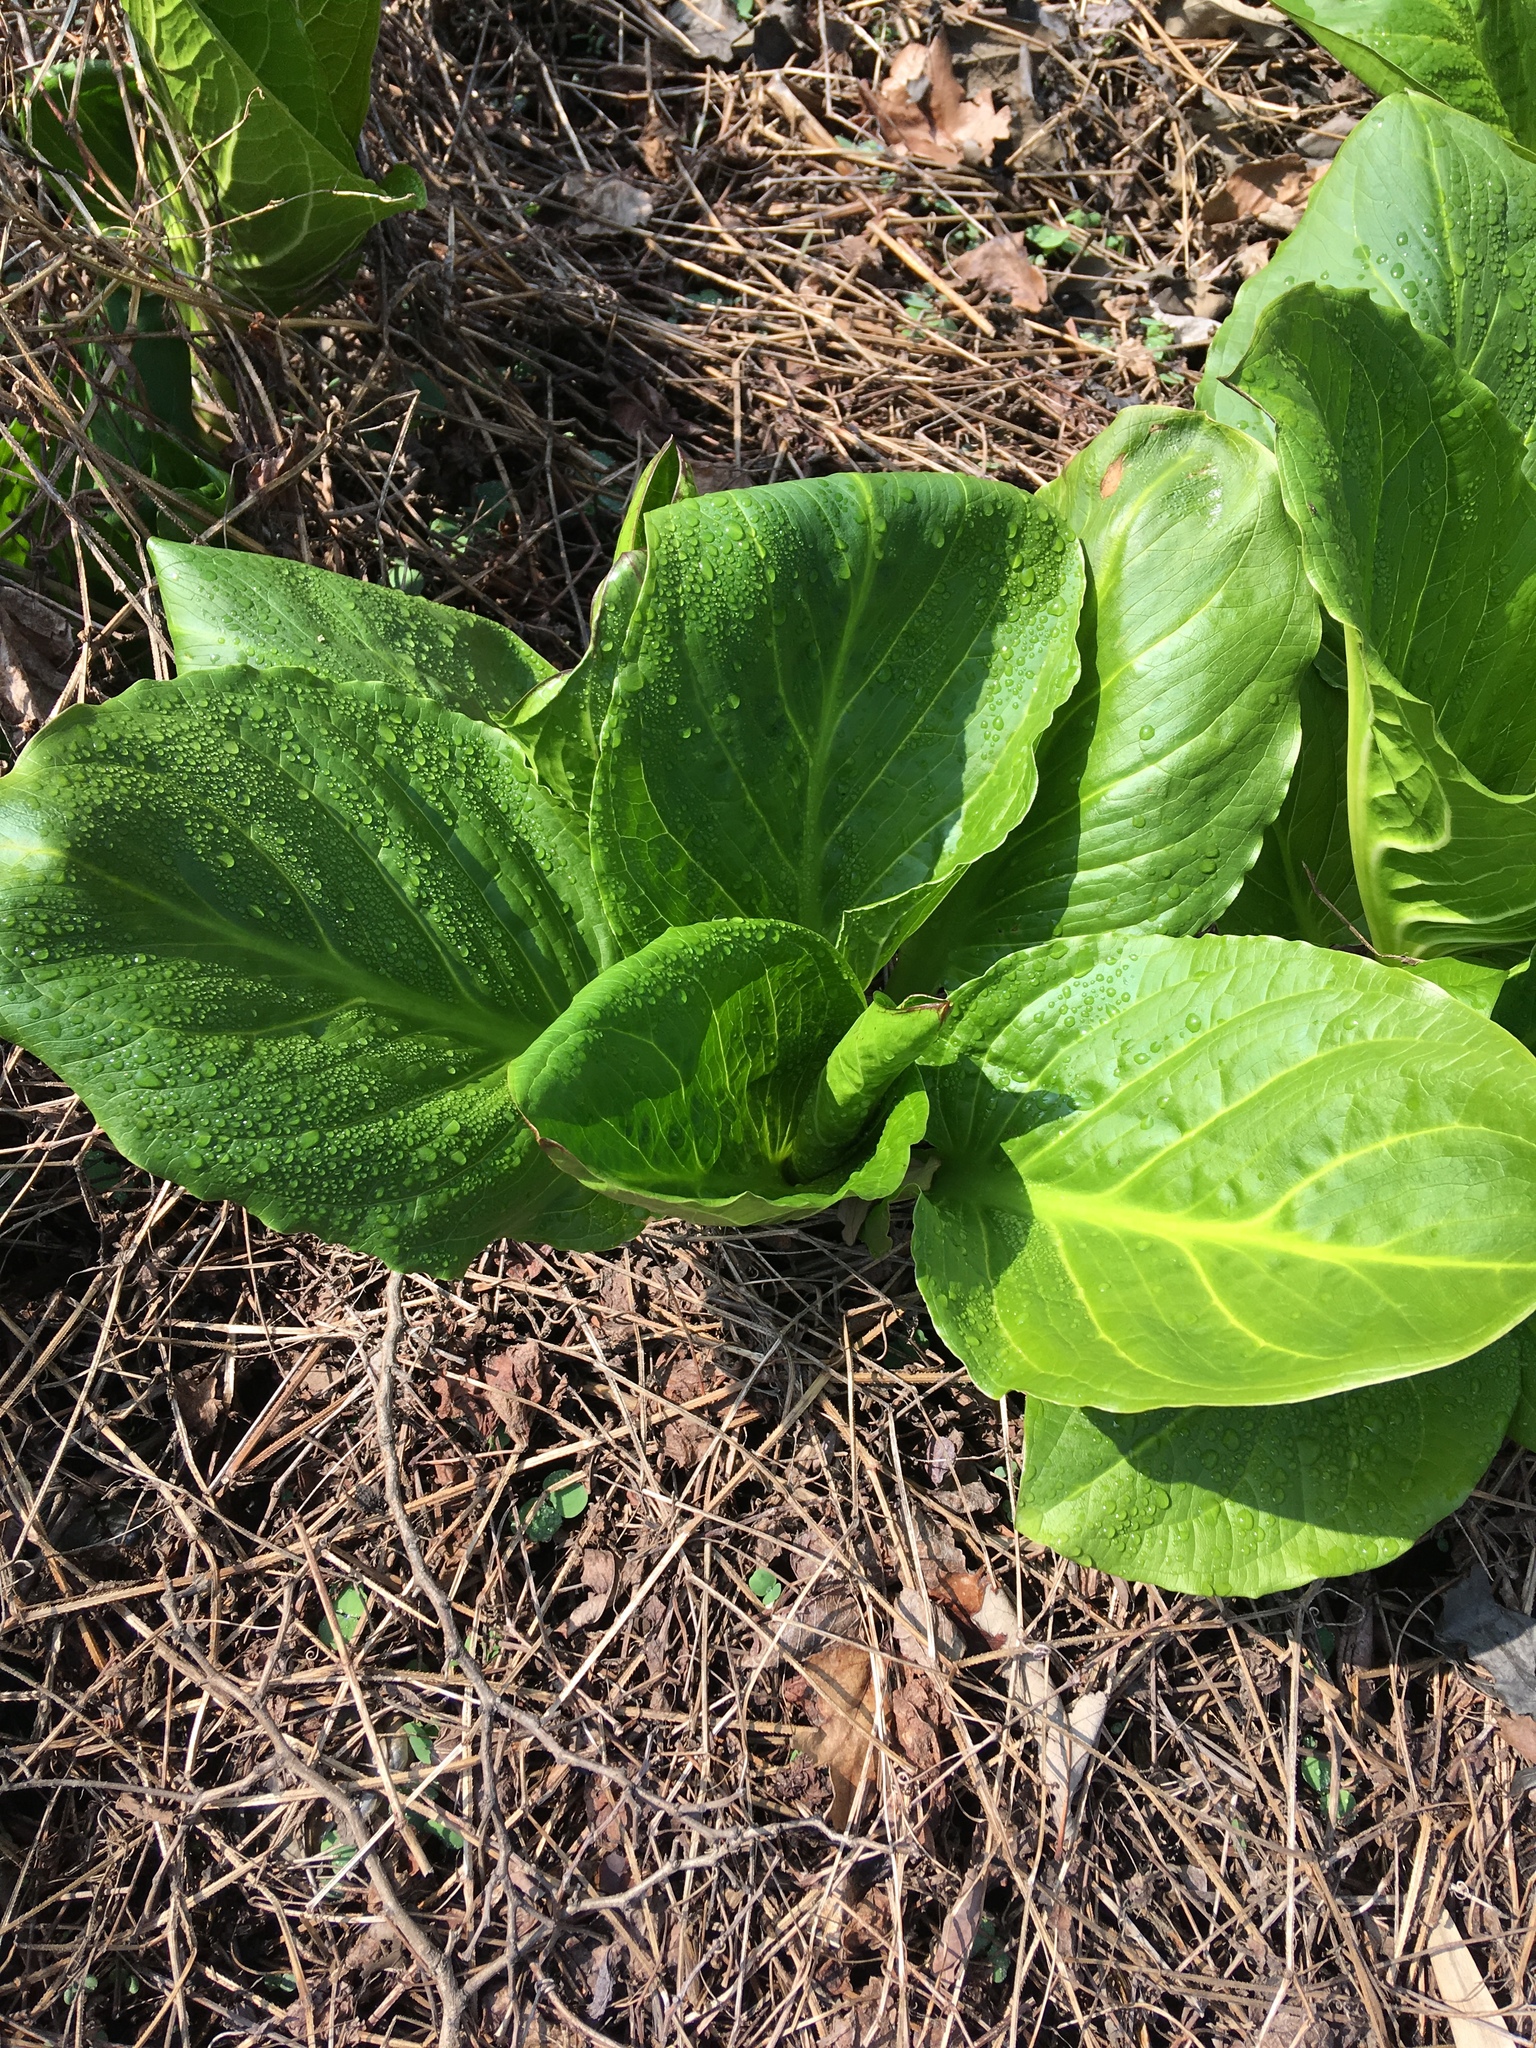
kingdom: Plantae
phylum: Tracheophyta
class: Liliopsida
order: Alismatales
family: Araceae
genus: Symplocarpus
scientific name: Symplocarpus foetidus
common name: Eastern skunk cabbage
